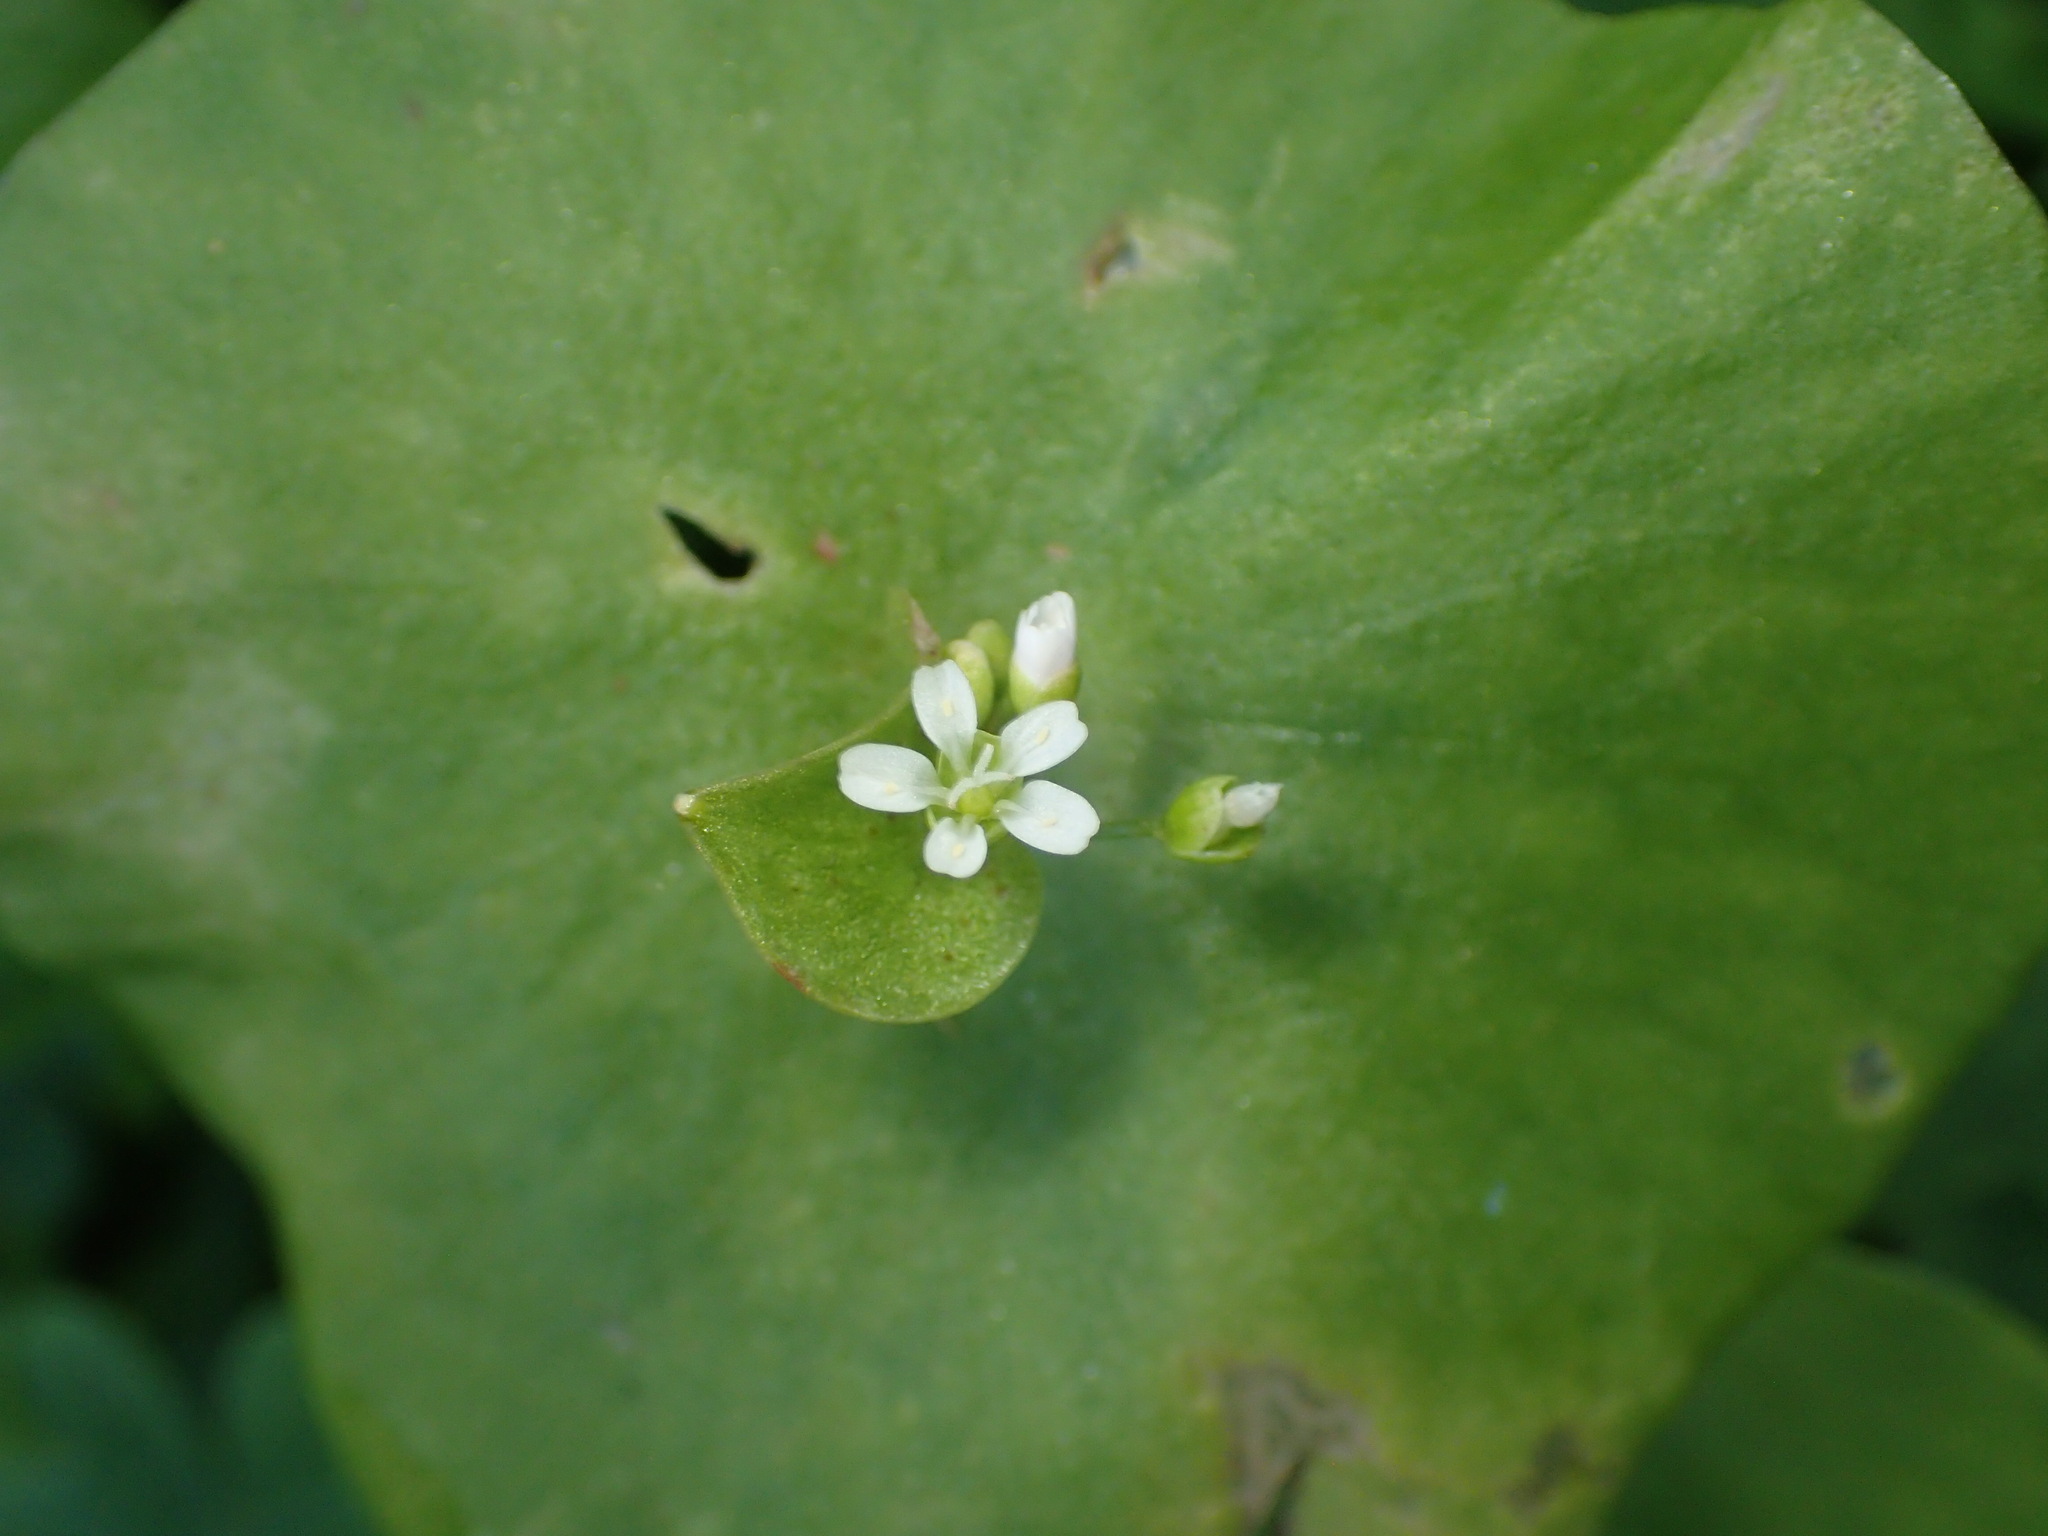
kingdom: Plantae
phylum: Tracheophyta
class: Magnoliopsida
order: Caryophyllales
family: Montiaceae
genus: Claytonia
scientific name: Claytonia perfoliata
